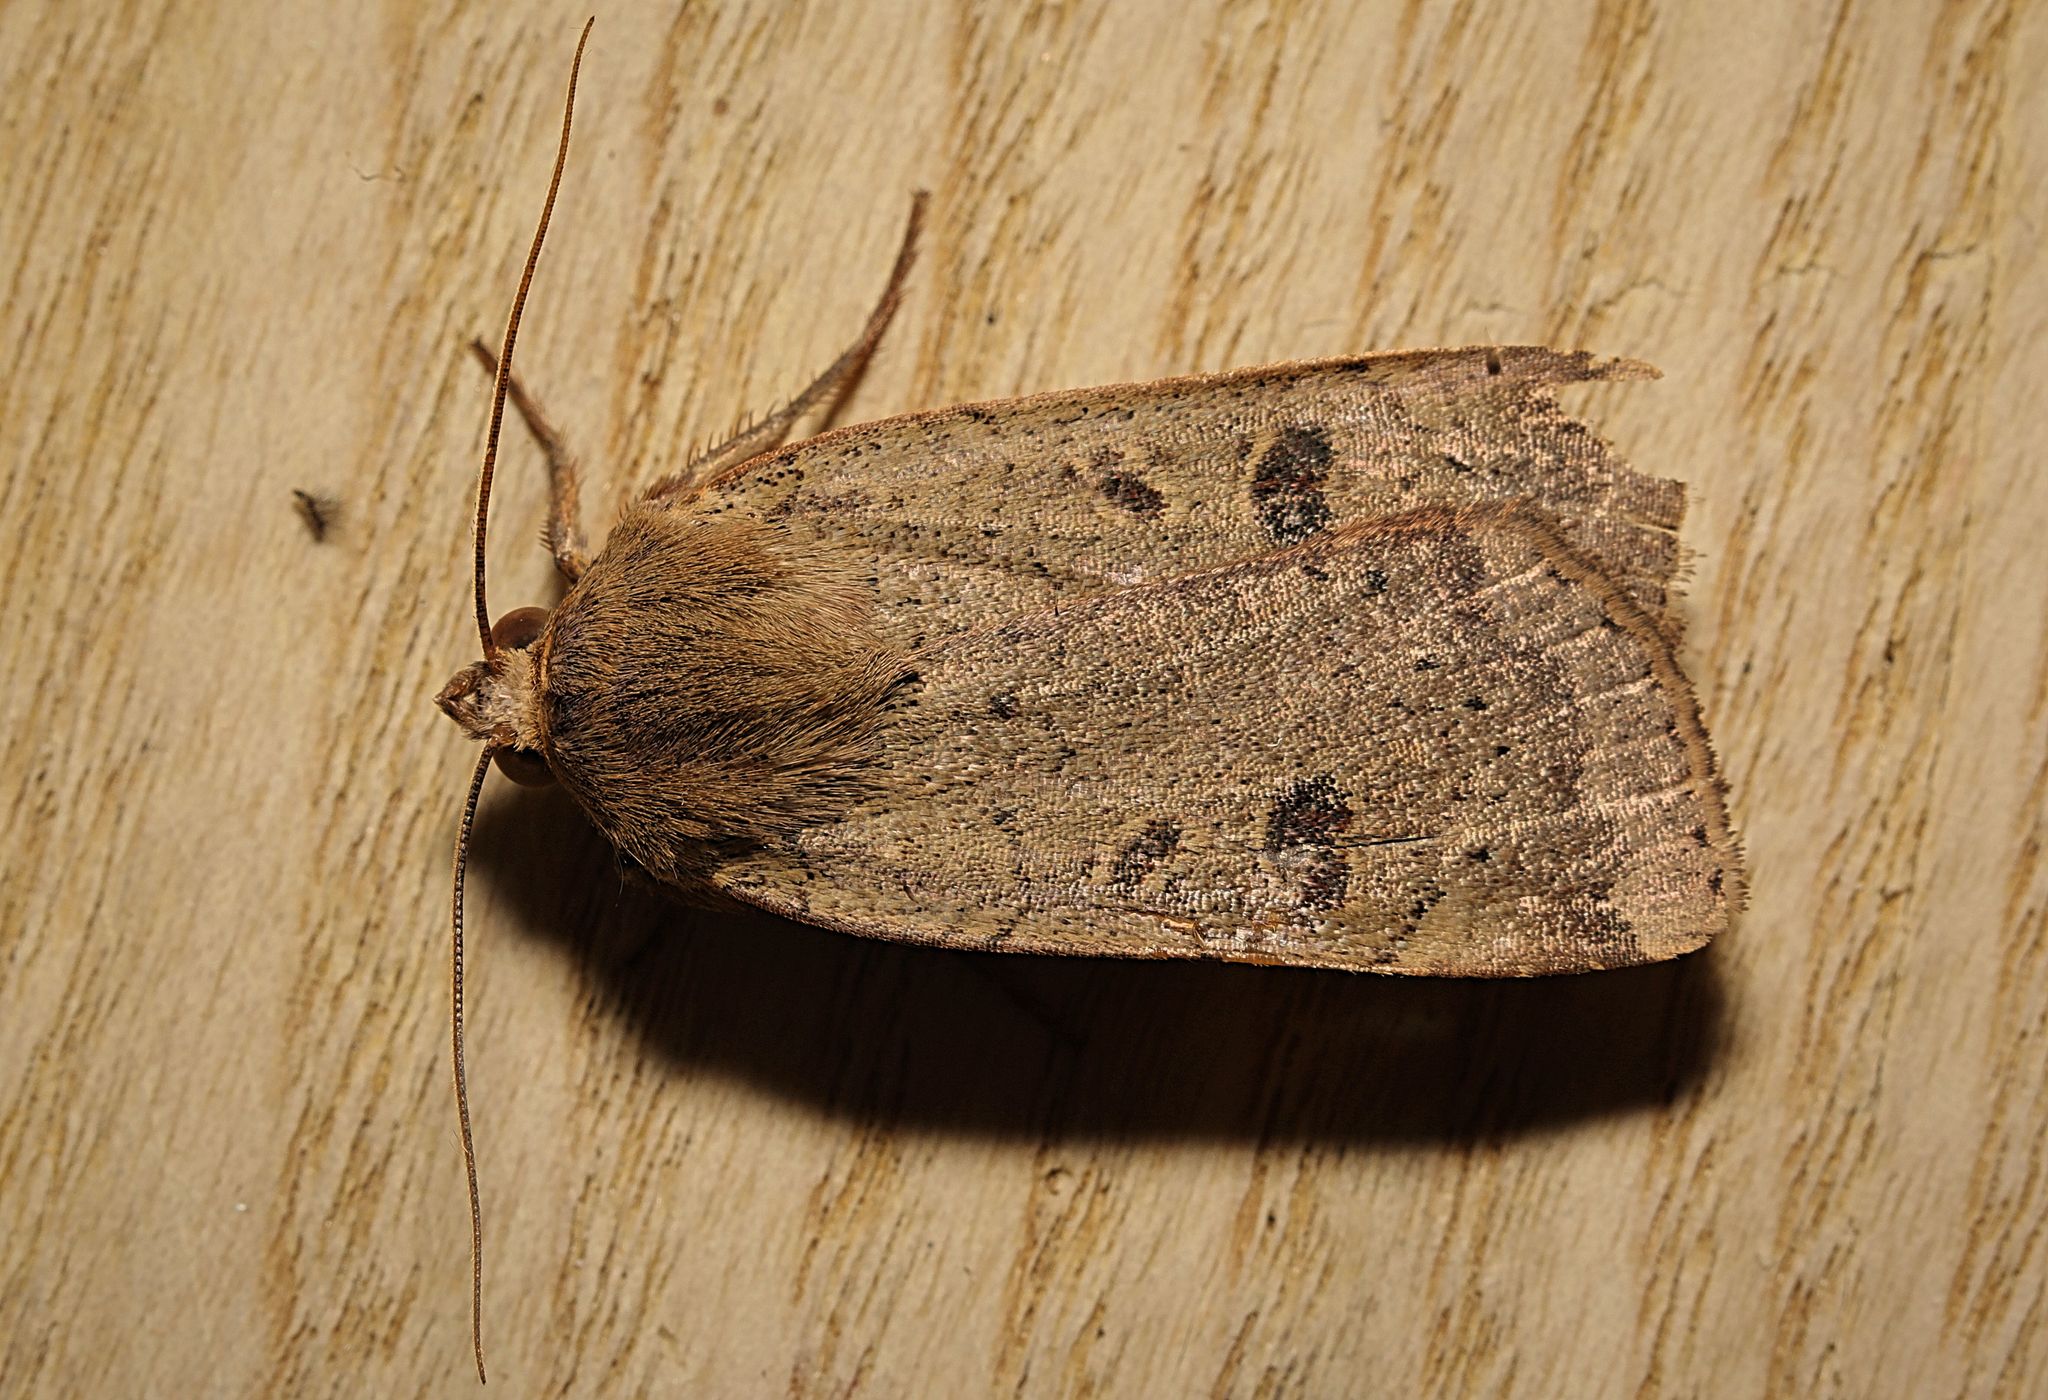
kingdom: Animalia
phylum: Arthropoda
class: Insecta
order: Lepidoptera
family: Noctuidae
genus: Noctua
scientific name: Noctua comes
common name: Lesser yellow underwing
